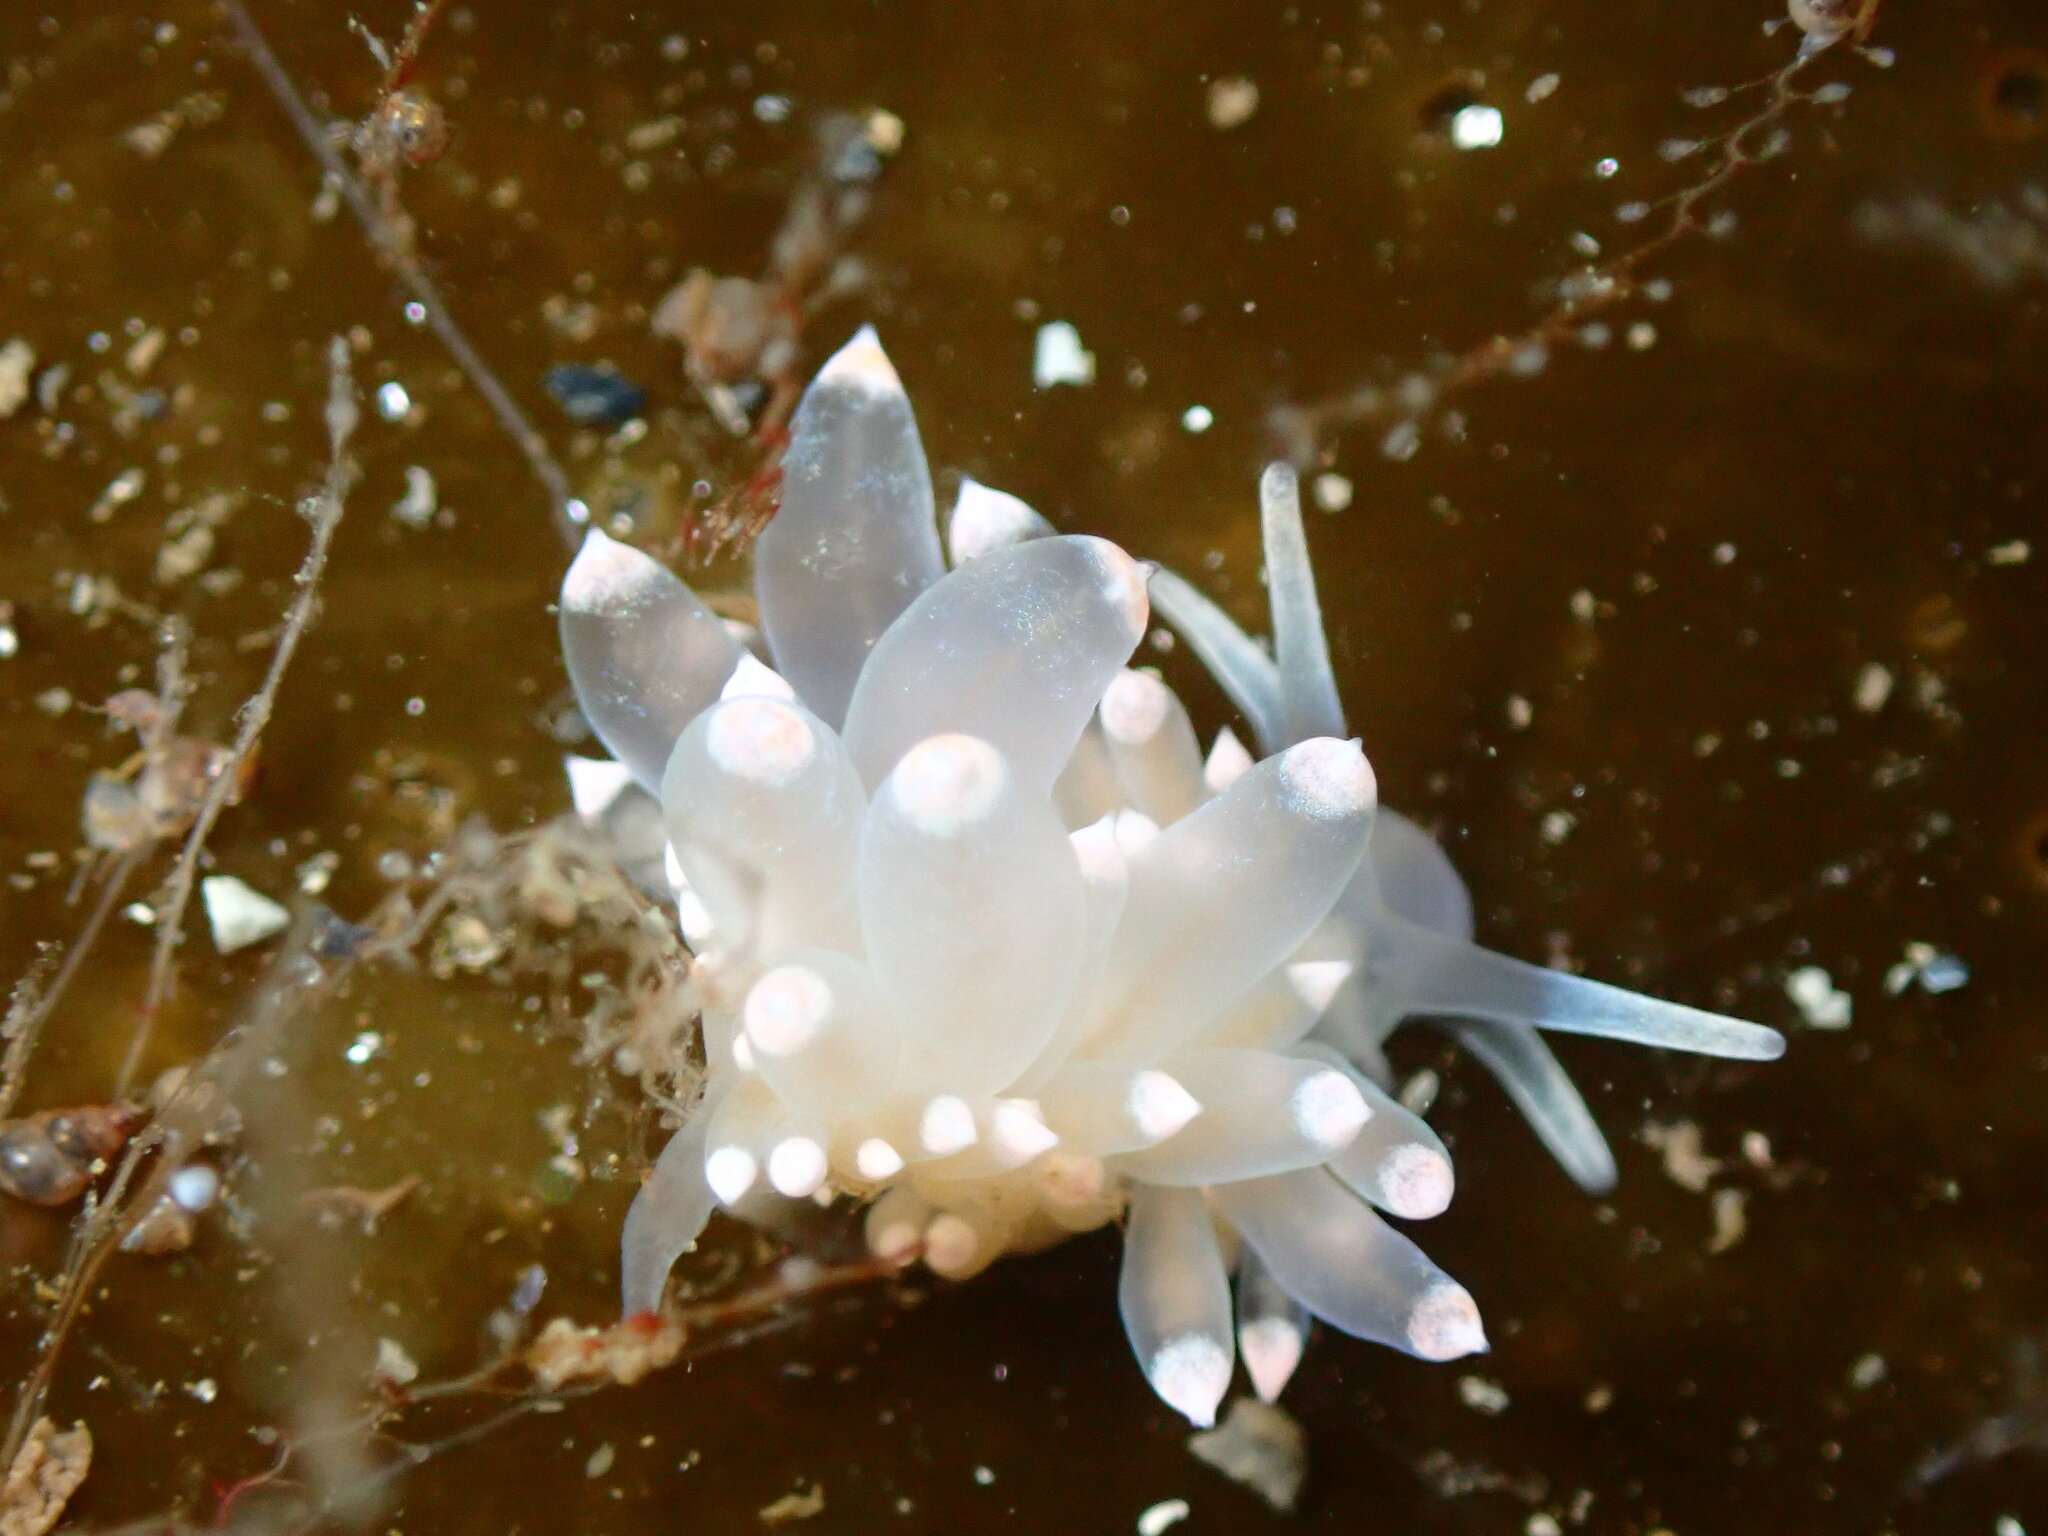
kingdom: Animalia
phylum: Mollusca
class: Gastropoda
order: Nudibranchia
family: Eubranchidae
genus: Amphorina
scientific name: Amphorina linensis
